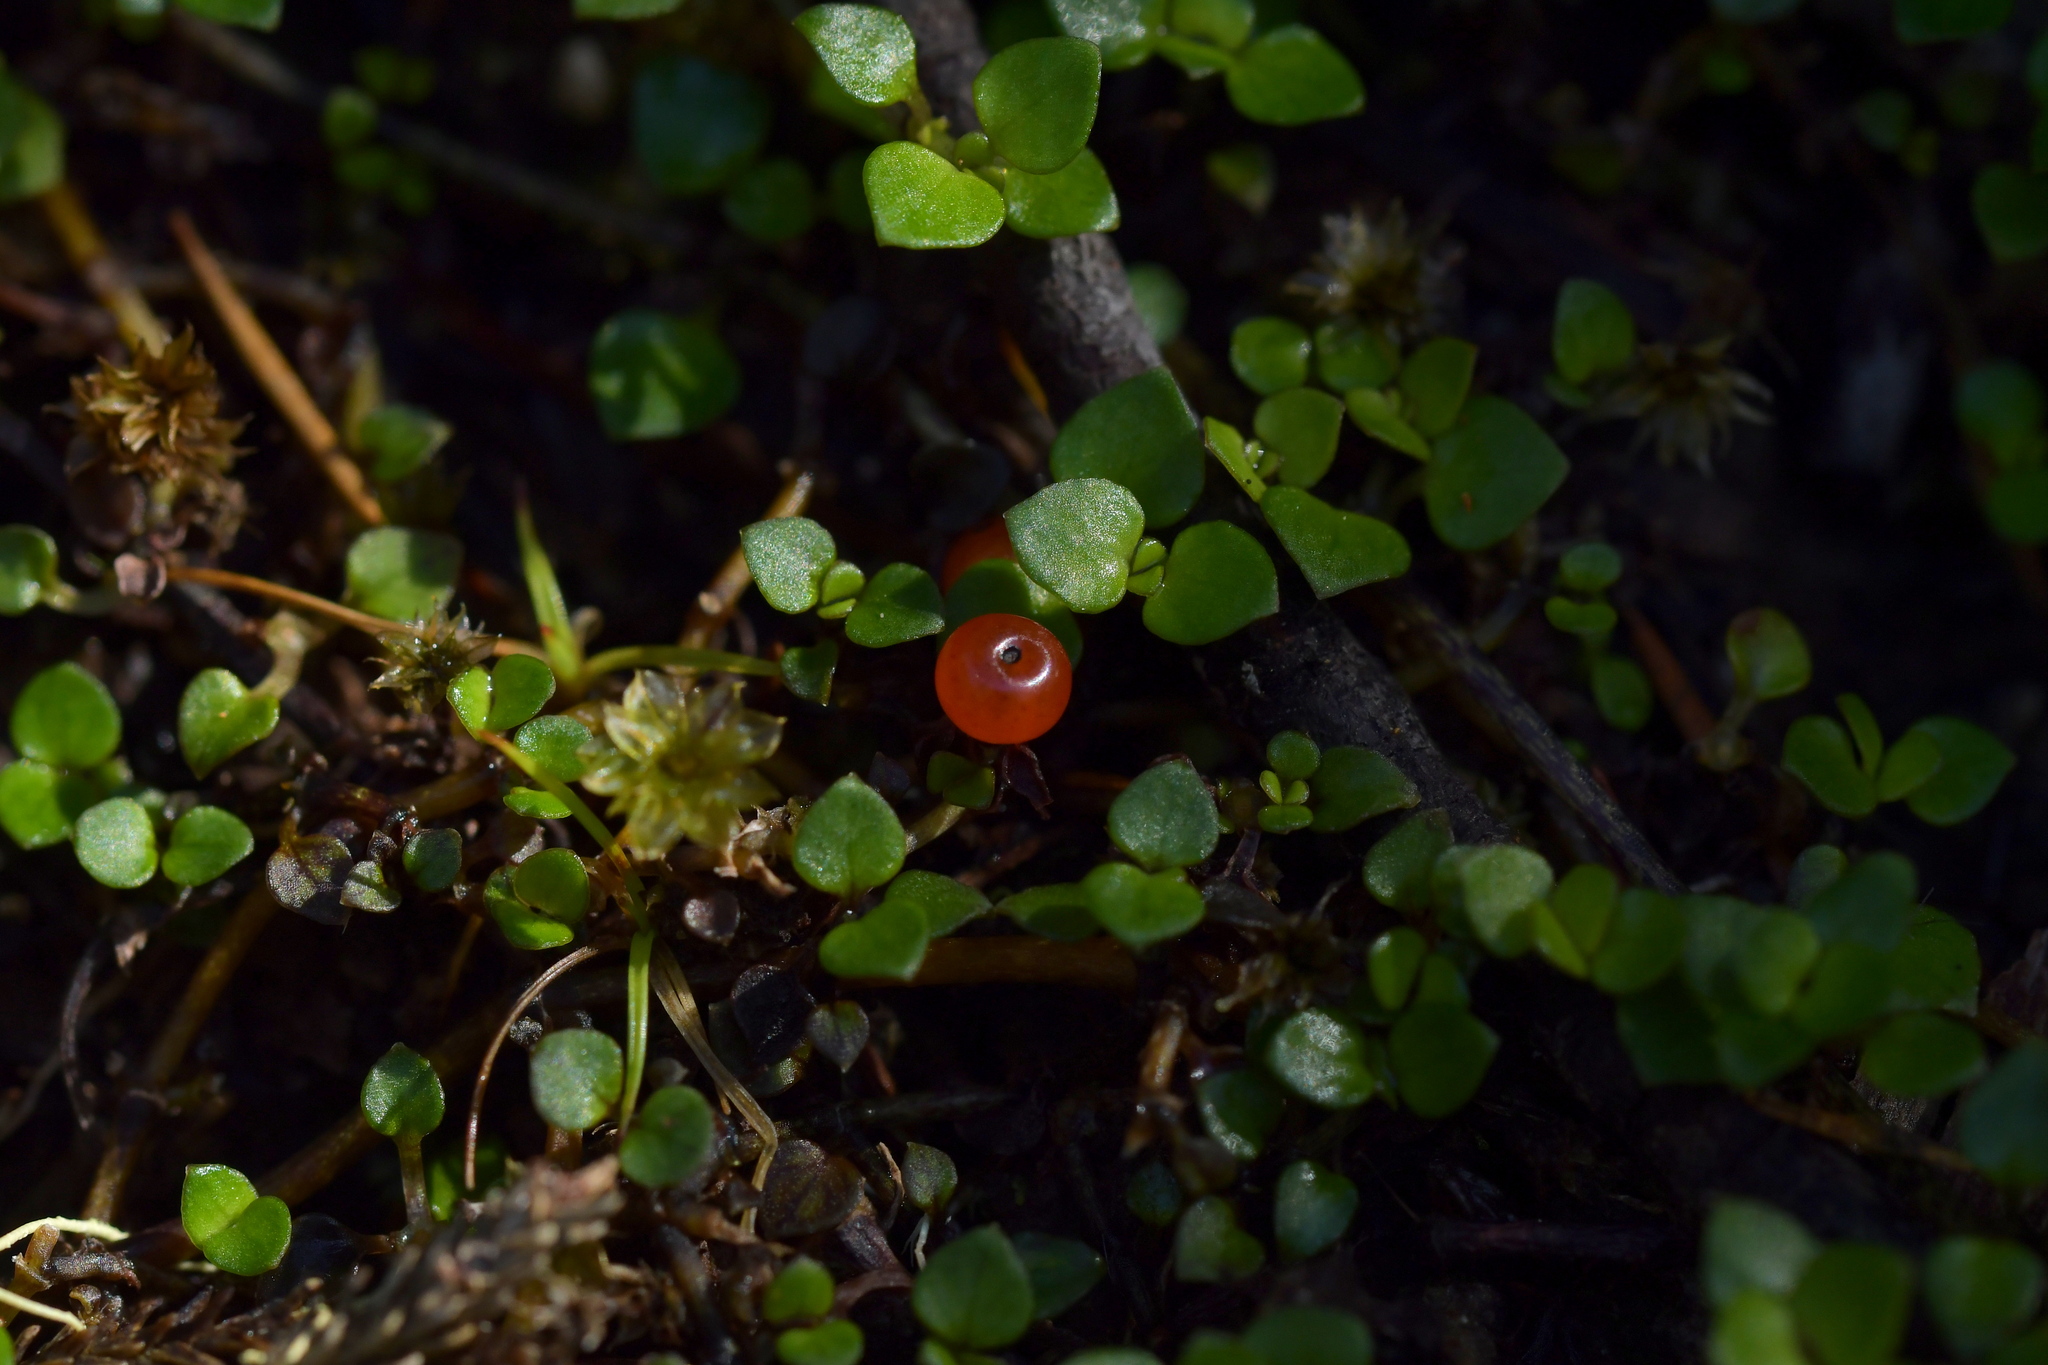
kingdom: Plantae
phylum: Tracheophyta
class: Magnoliopsida
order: Gentianales
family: Rubiaceae
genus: Nertera
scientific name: Nertera granadensis
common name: Beadplant
